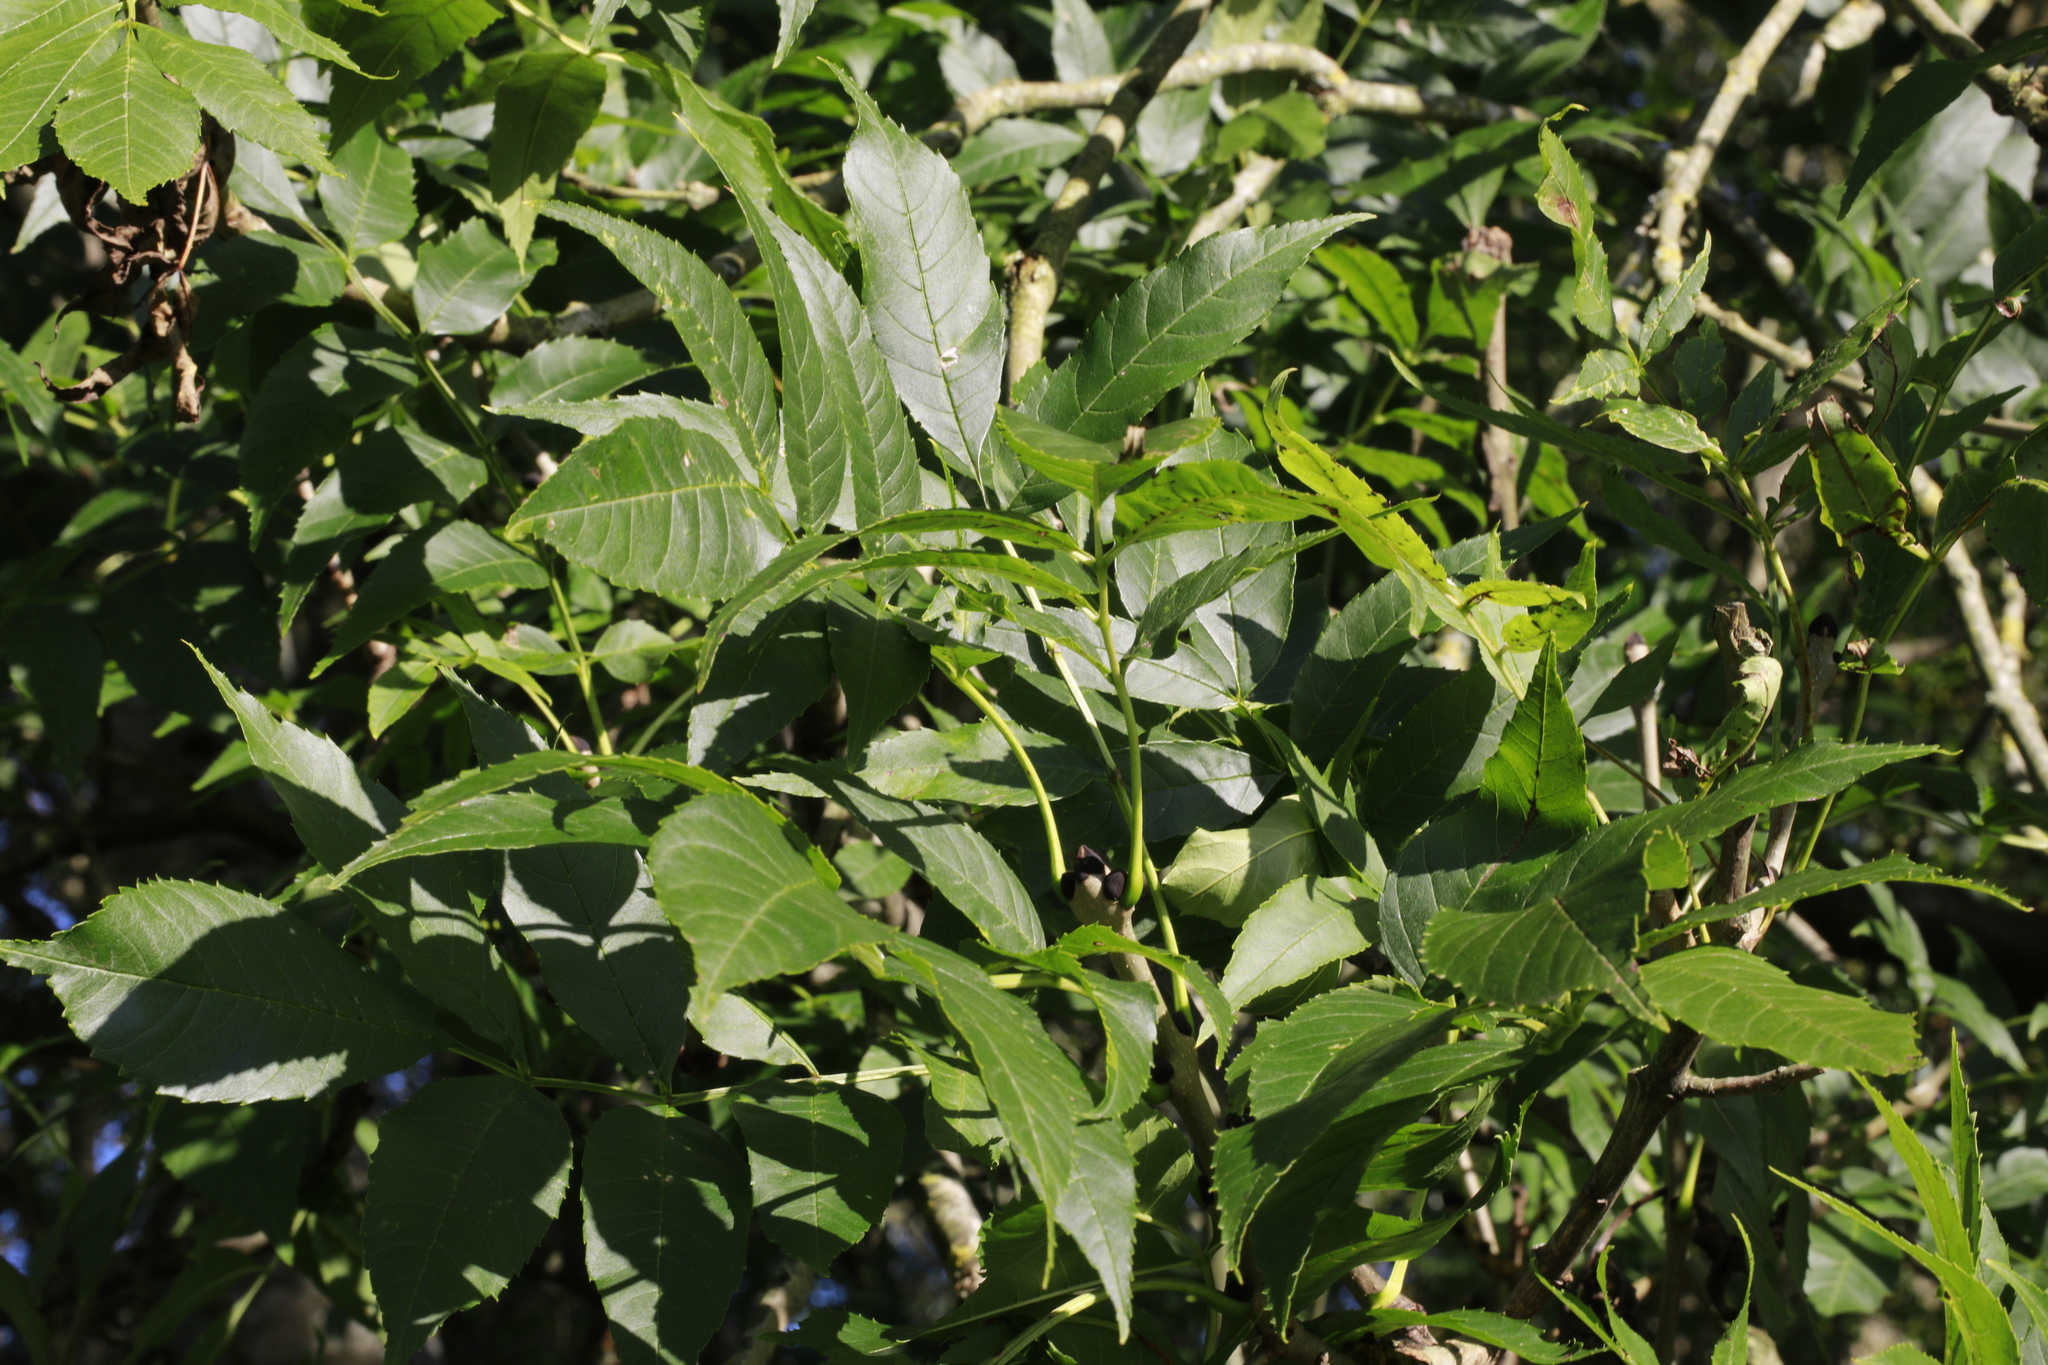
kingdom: Plantae
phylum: Tracheophyta
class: Magnoliopsida
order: Lamiales
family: Oleaceae
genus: Fraxinus
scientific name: Fraxinus excelsior
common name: European ash
